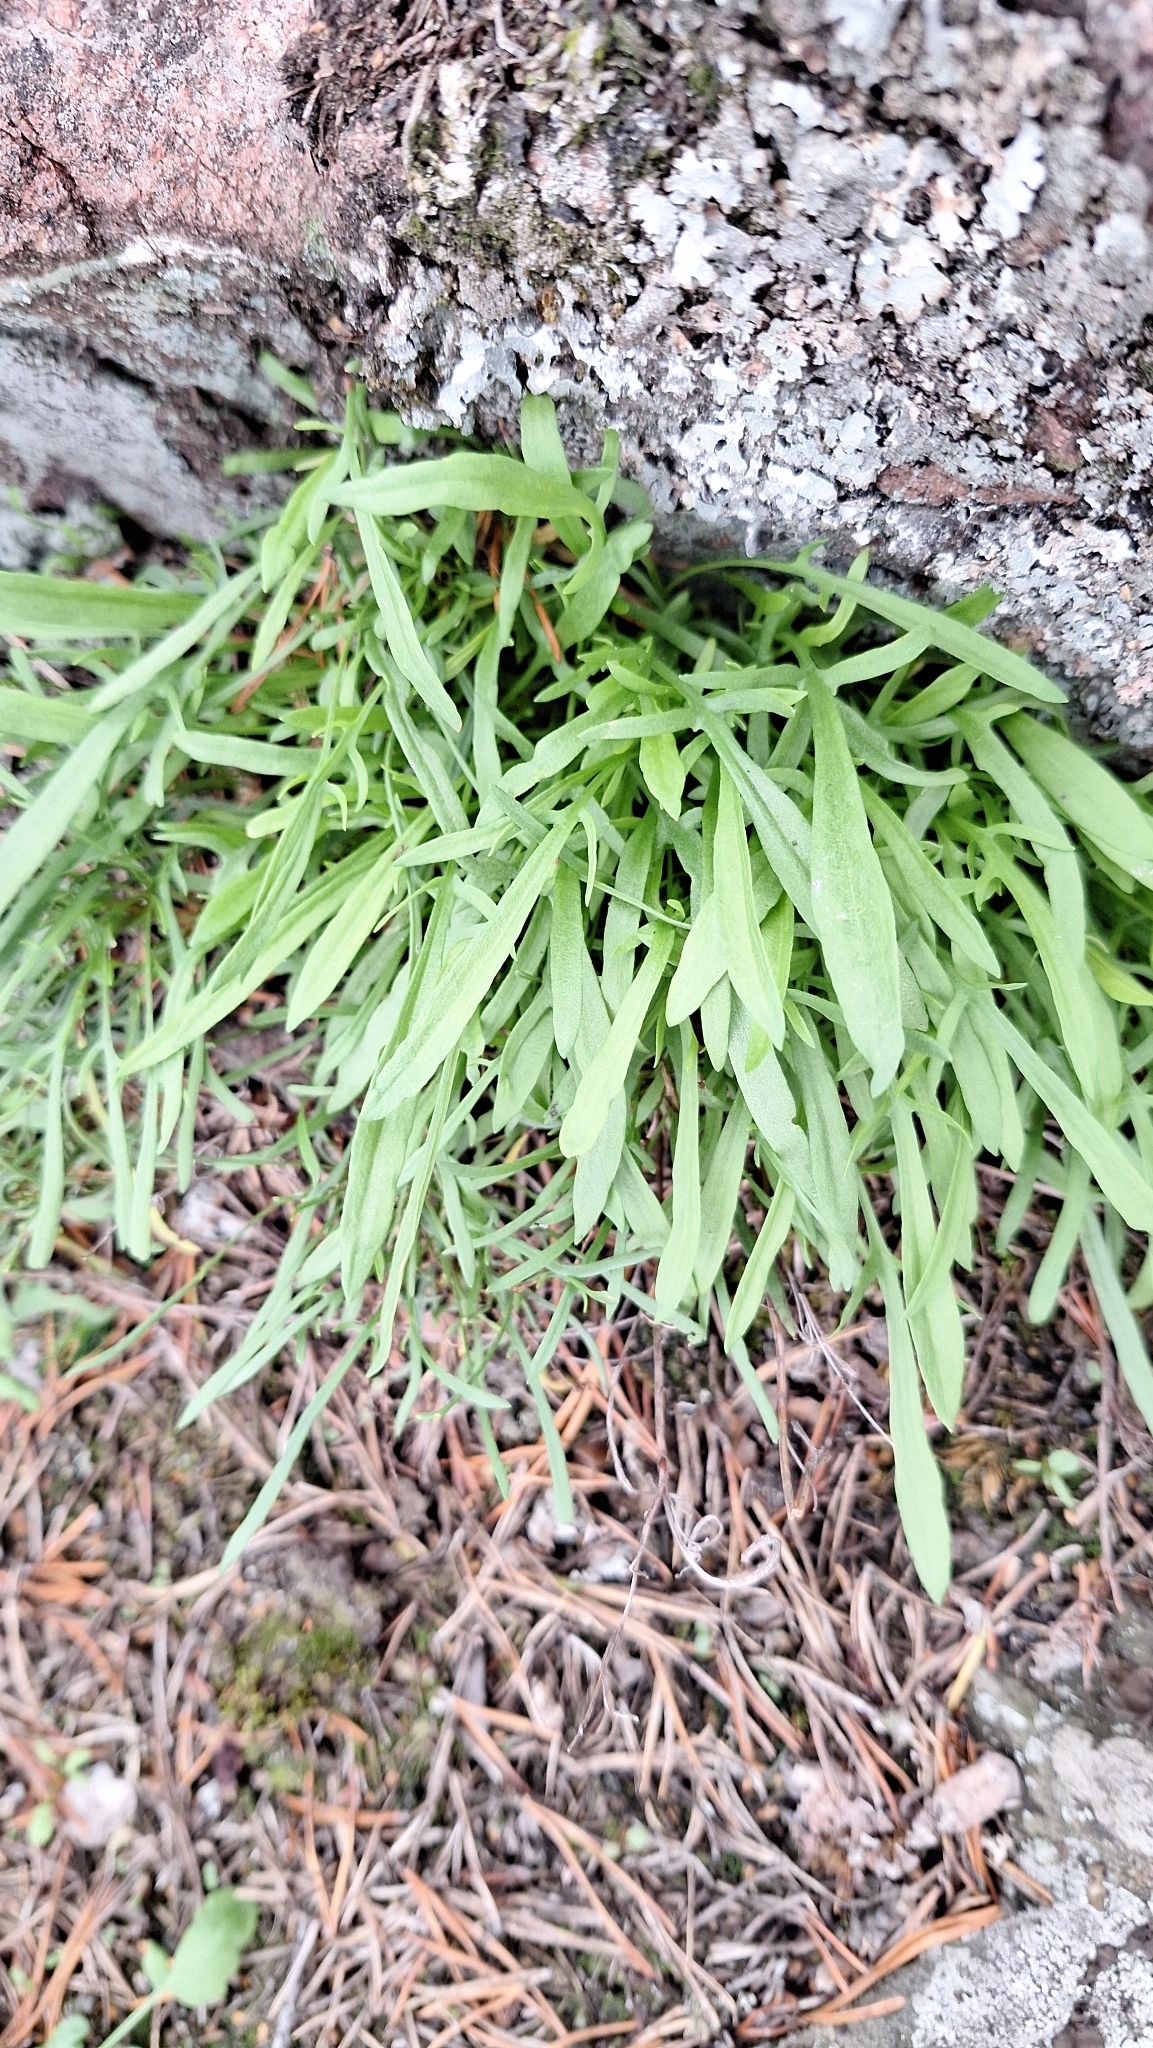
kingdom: Plantae
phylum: Tracheophyta
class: Polypodiopsida
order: Polypodiales
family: Aspleniaceae
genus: Asplenium
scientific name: Asplenium septentrionale
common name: Forked spleenwort
